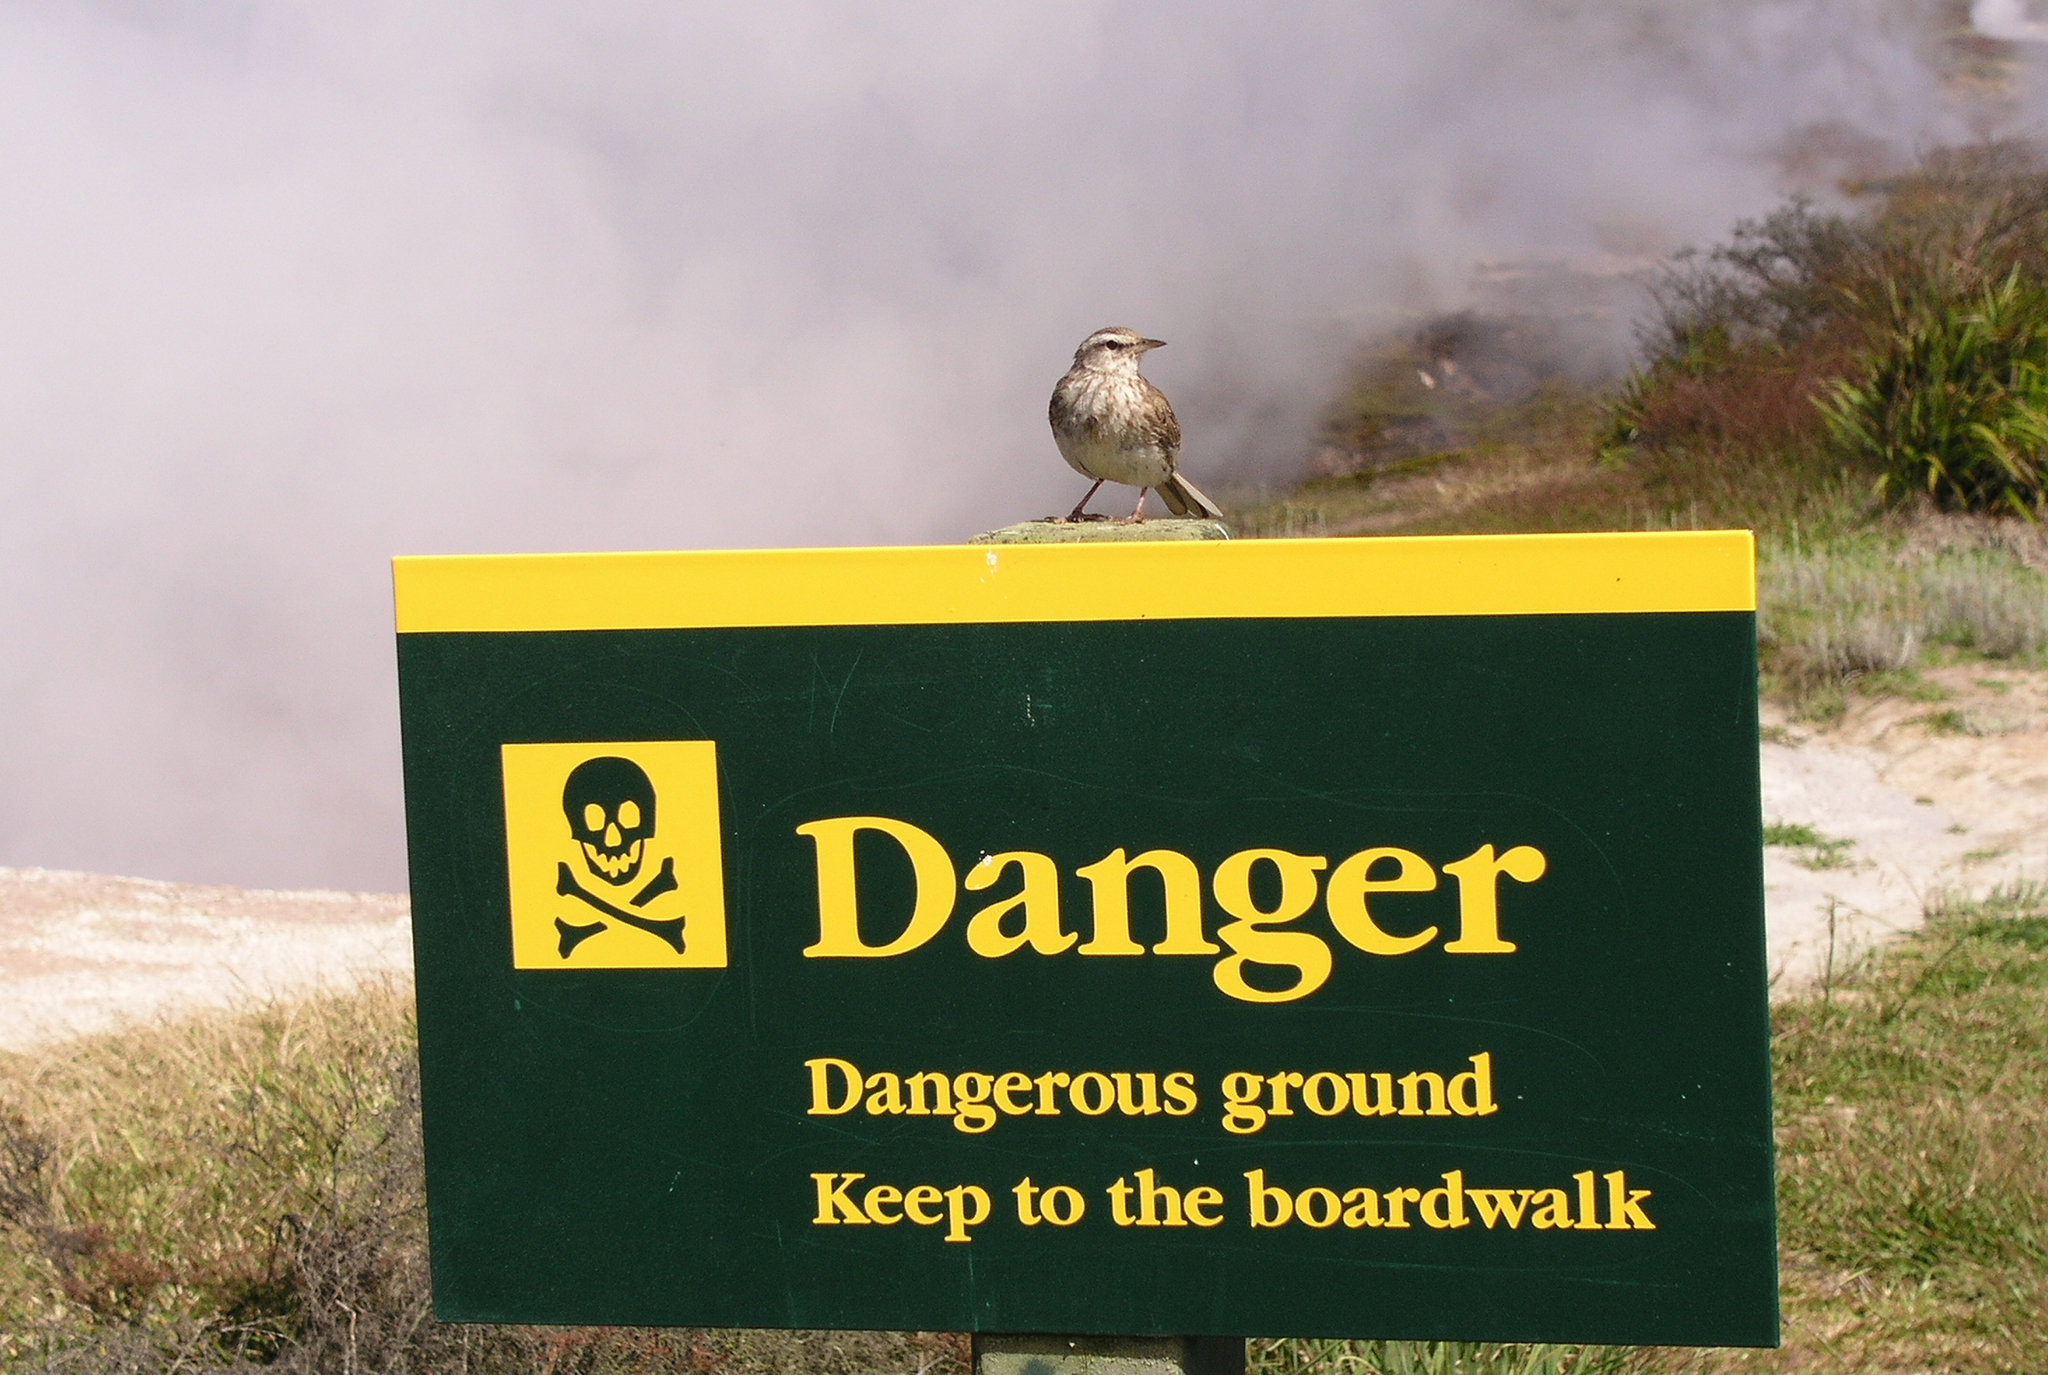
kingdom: Animalia
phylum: Chordata
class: Aves
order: Passeriformes
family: Motacillidae
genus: Anthus
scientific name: Anthus novaeseelandiae
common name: New zealand pipit
